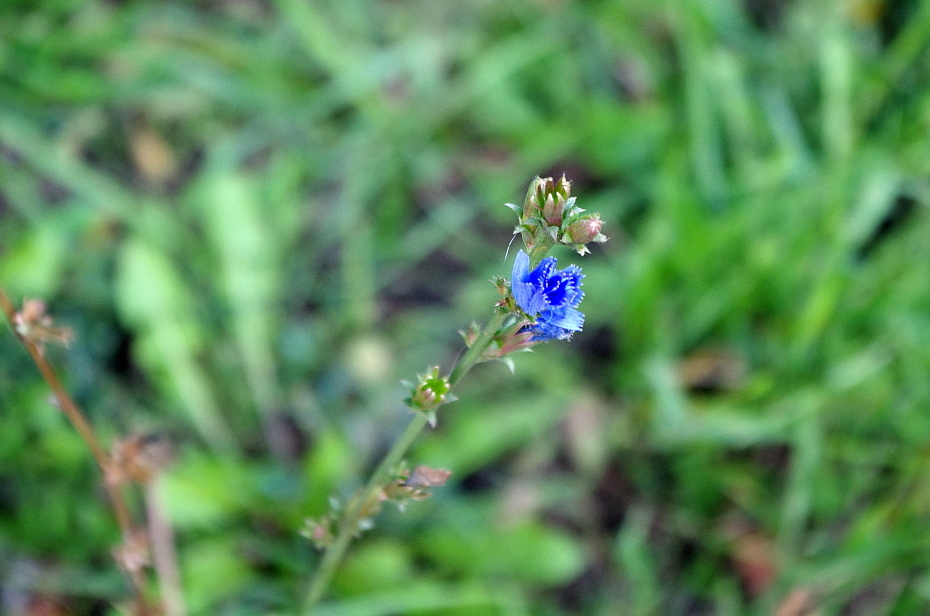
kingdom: Plantae
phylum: Tracheophyta
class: Magnoliopsida
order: Asterales
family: Asteraceae
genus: Cichorium
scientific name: Cichorium intybus
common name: Chicory
